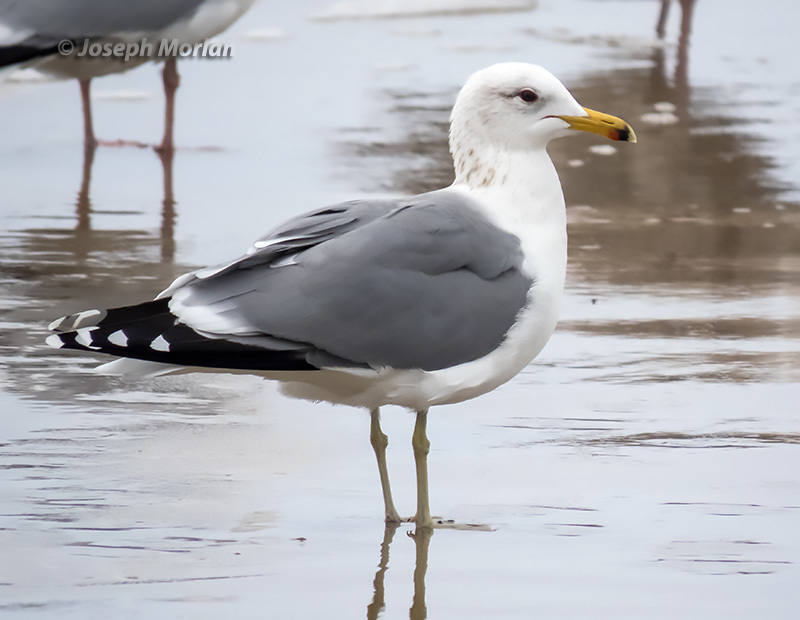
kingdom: Animalia
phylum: Chordata
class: Aves
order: Charadriiformes
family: Laridae
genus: Larus
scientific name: Larus californicus
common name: California gull
